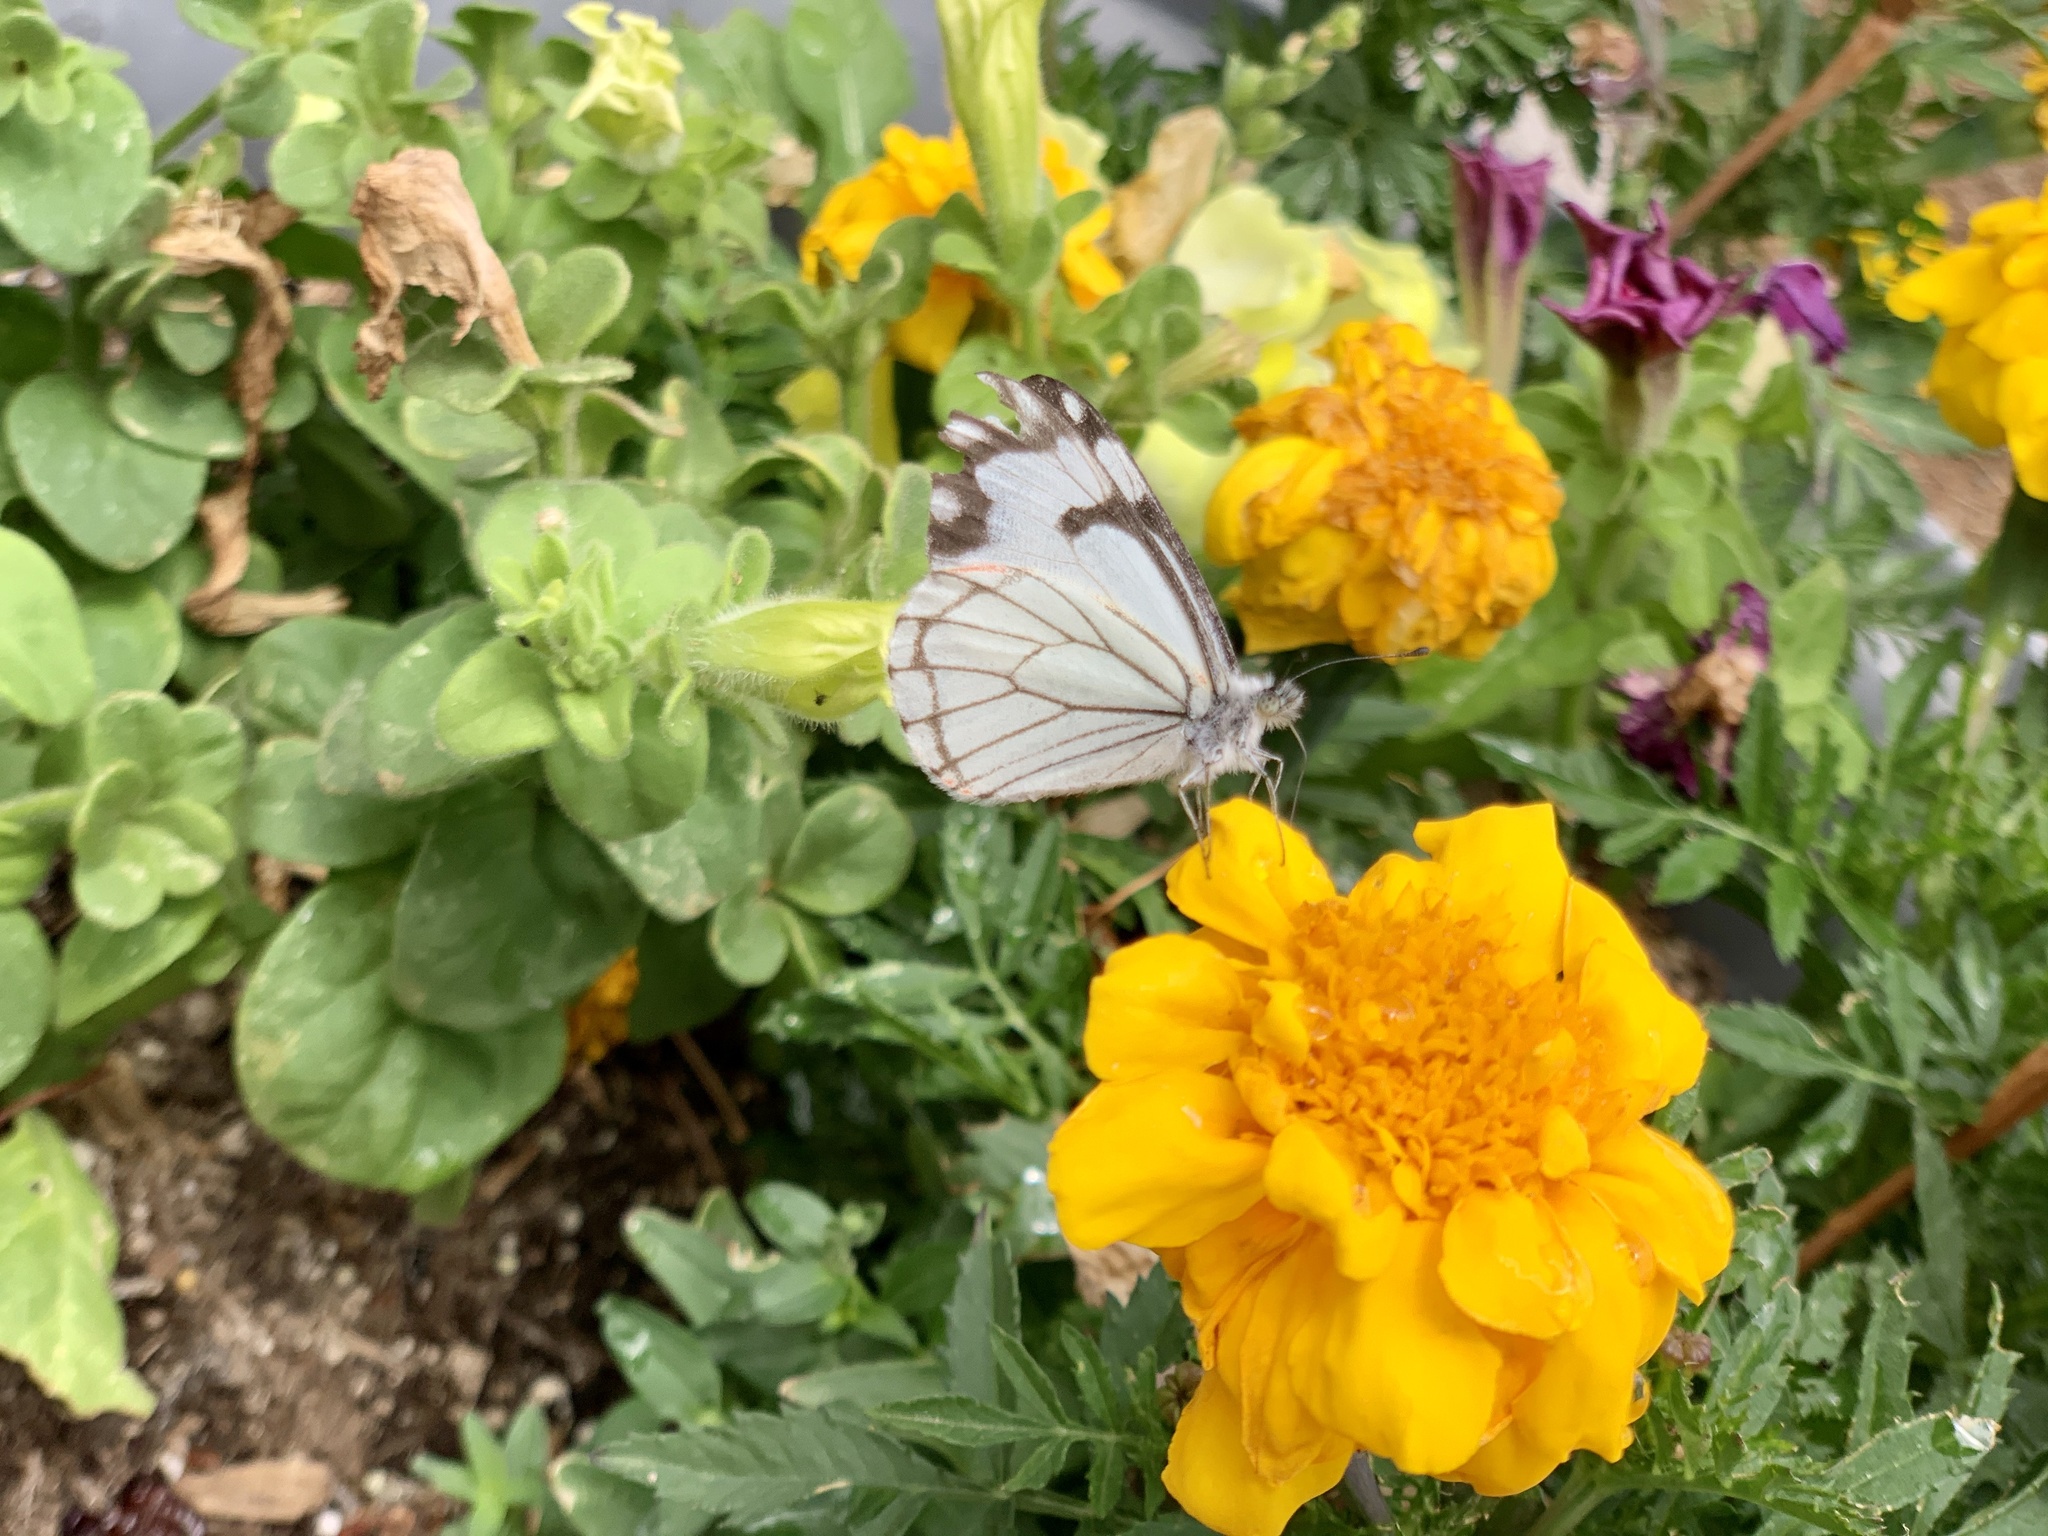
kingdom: Animalia
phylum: Arthropoda
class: Insecta
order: Lepidoptera
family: Pieridae
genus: Neophasia
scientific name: Neophasia menapia
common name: Pine white
